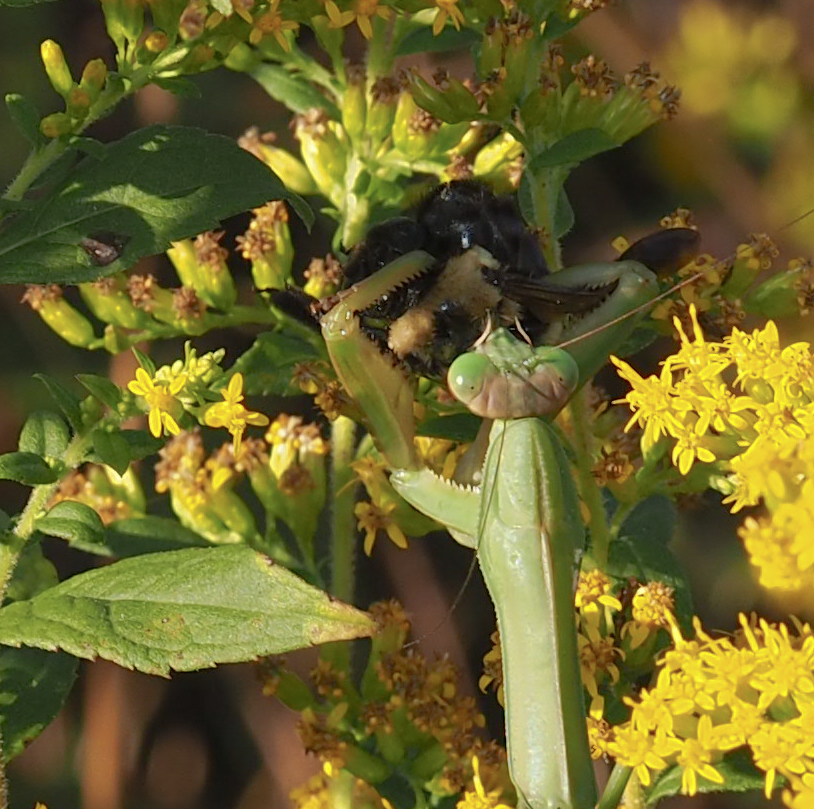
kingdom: Animalia
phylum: Arthropoda
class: Insecta
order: Mantodea
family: Mantidae
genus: Tenodera
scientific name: Tenodera sinensis
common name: Chinese mantis
